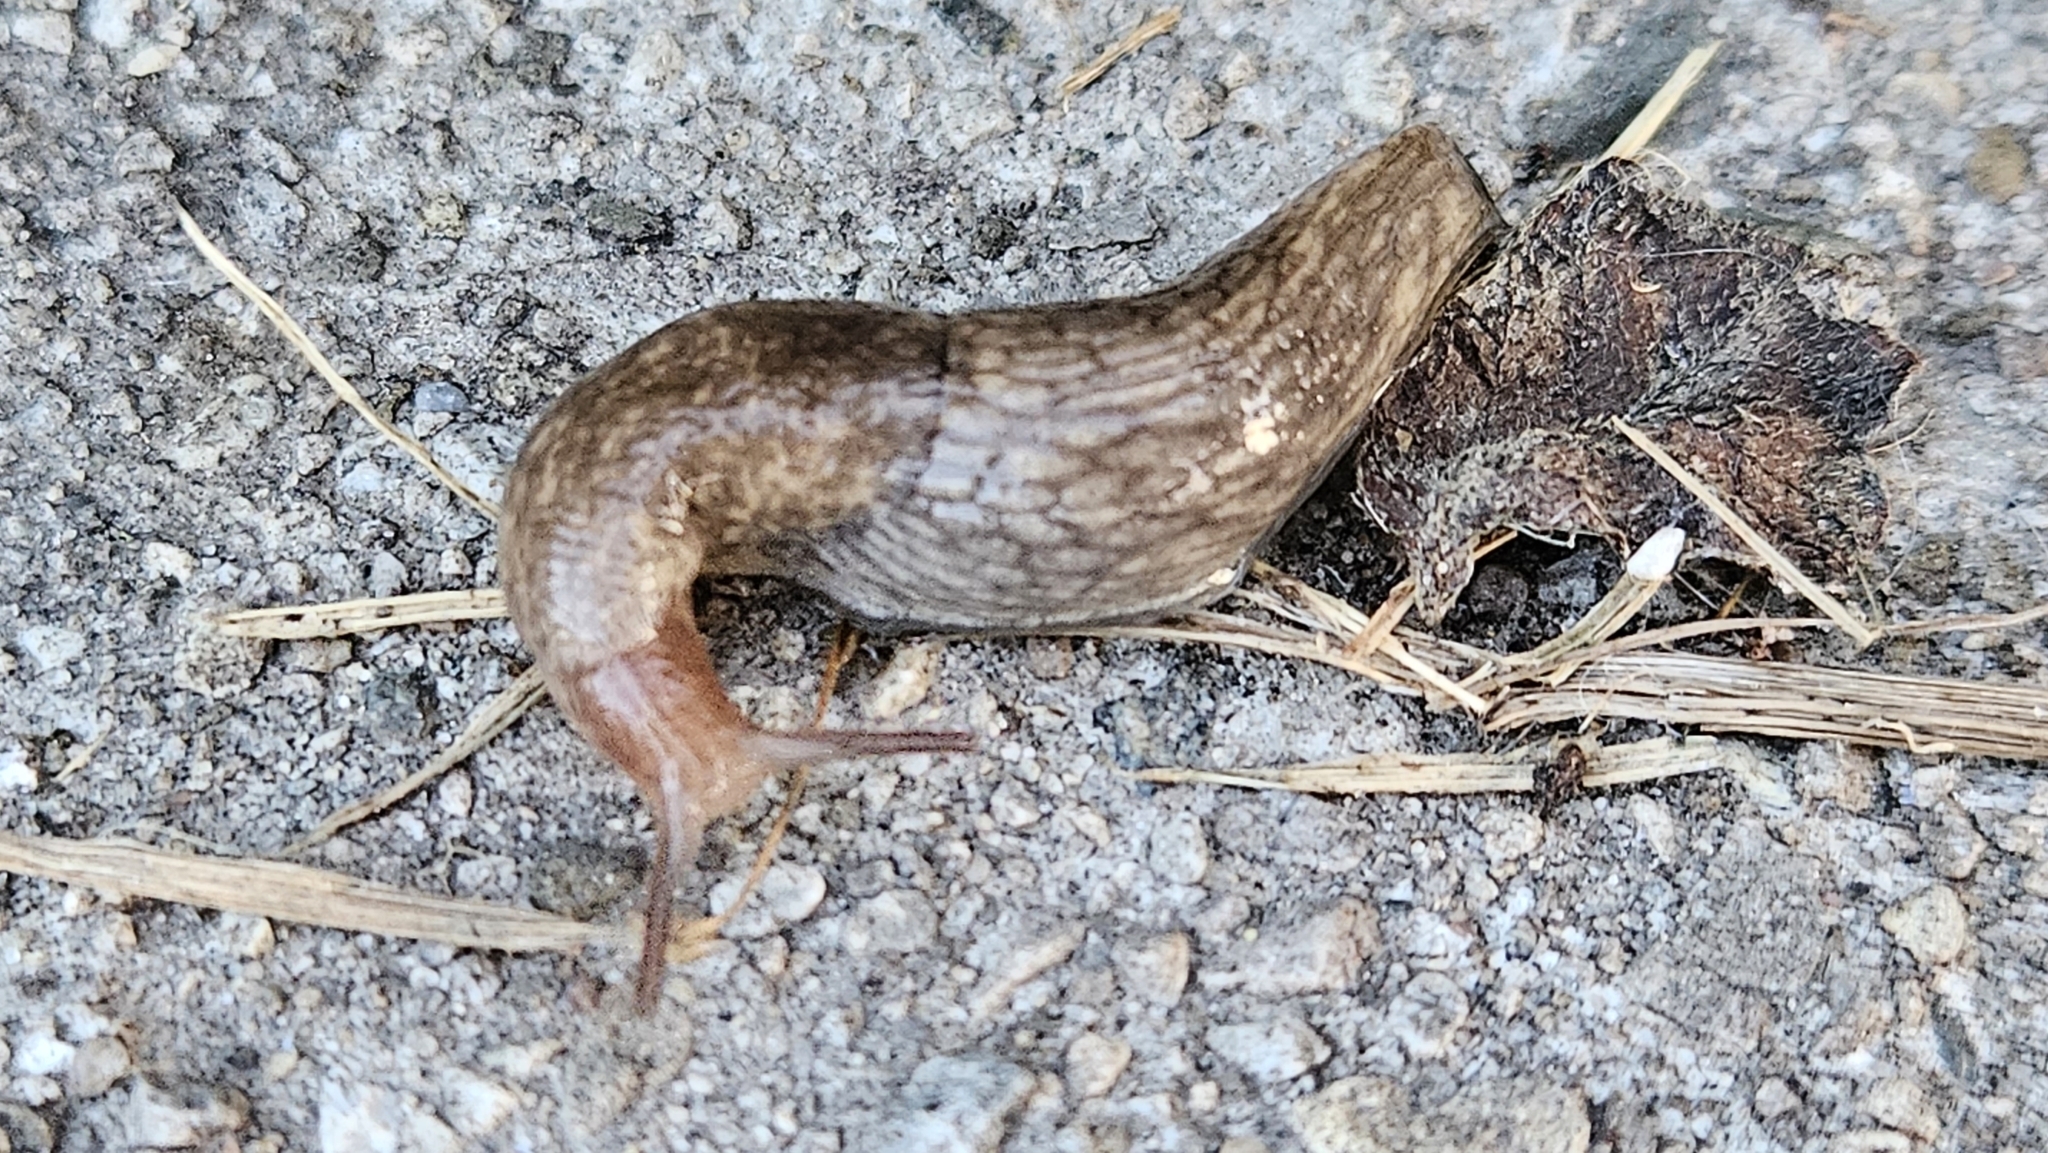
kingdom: Animalia
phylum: Mollusca
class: Gastropoda
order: Stylommatophora
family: Agriolimacidae
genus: Deroceras
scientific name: Deroceras reticulatum
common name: Gray field slug
